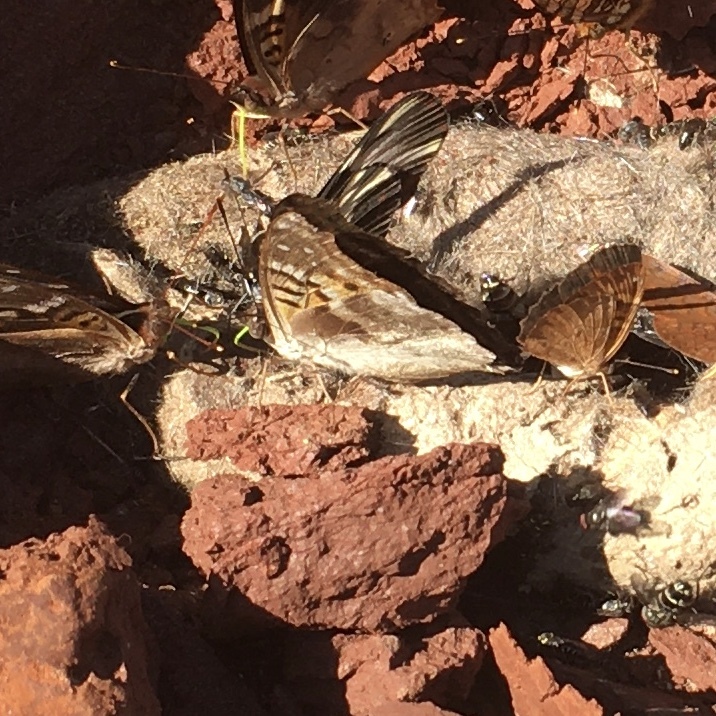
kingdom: Animalia
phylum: Arthropoda
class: Insecta
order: Lepidoptera
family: Nymphalidae
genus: Doxocopa
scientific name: Doxocopa laurentia
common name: Turquoise emperor
